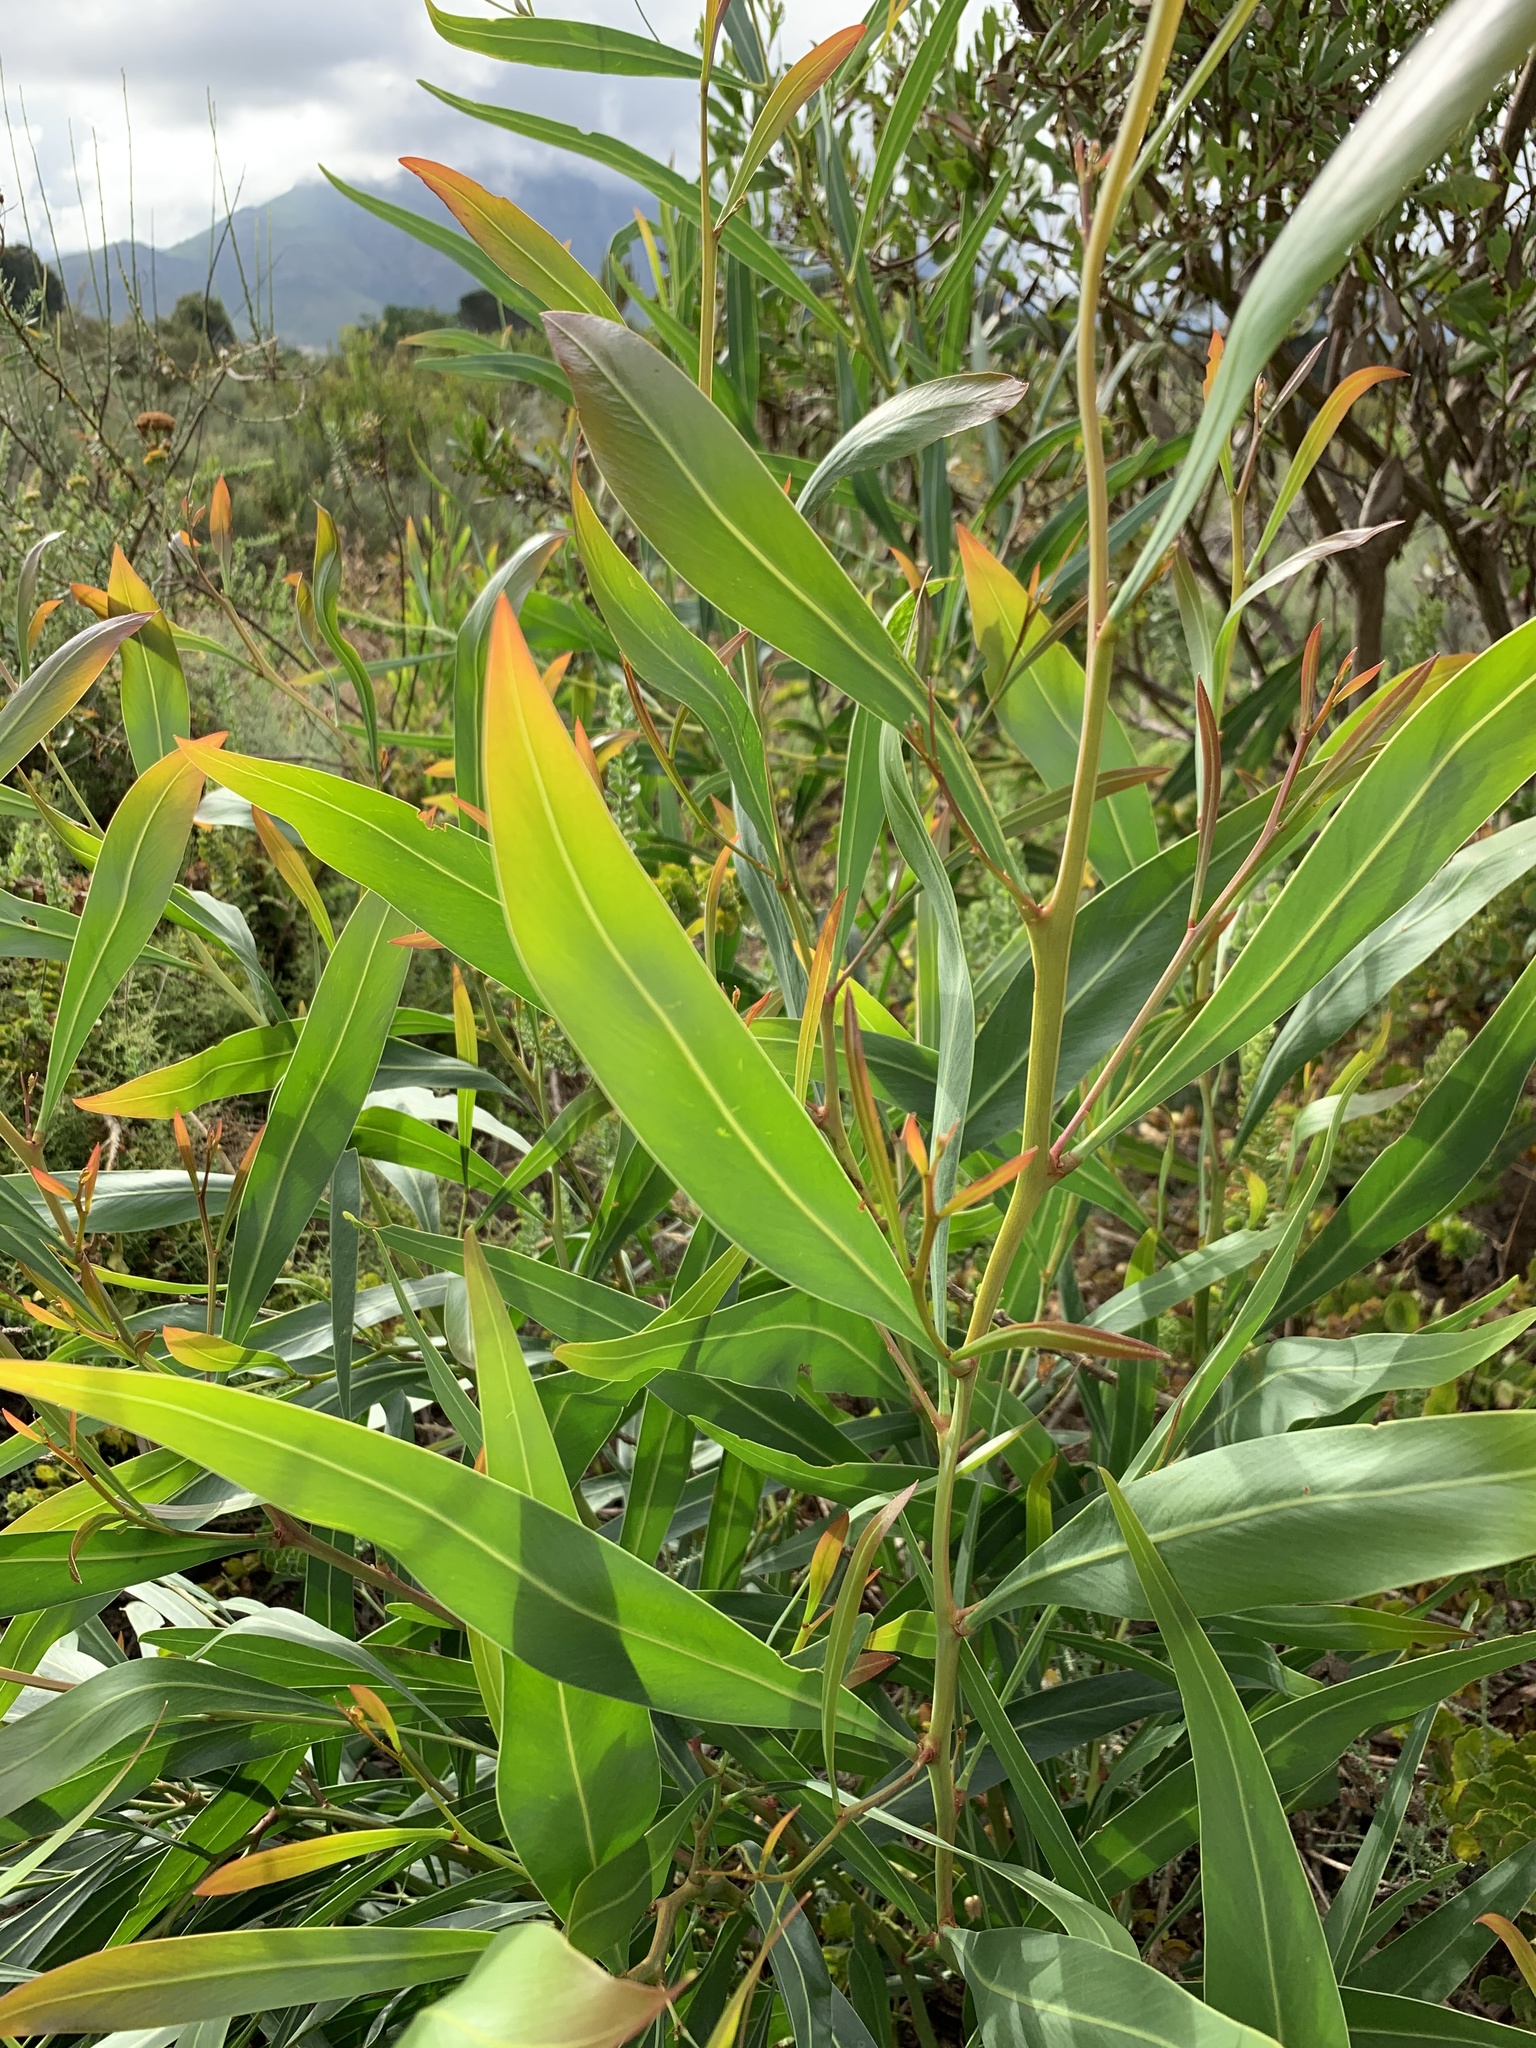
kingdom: Plantae
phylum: Tracheophyta
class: Magnoliopsida
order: Fabales
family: Fabaceae
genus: Acacia
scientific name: Acacia saligna
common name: Orange wattle
